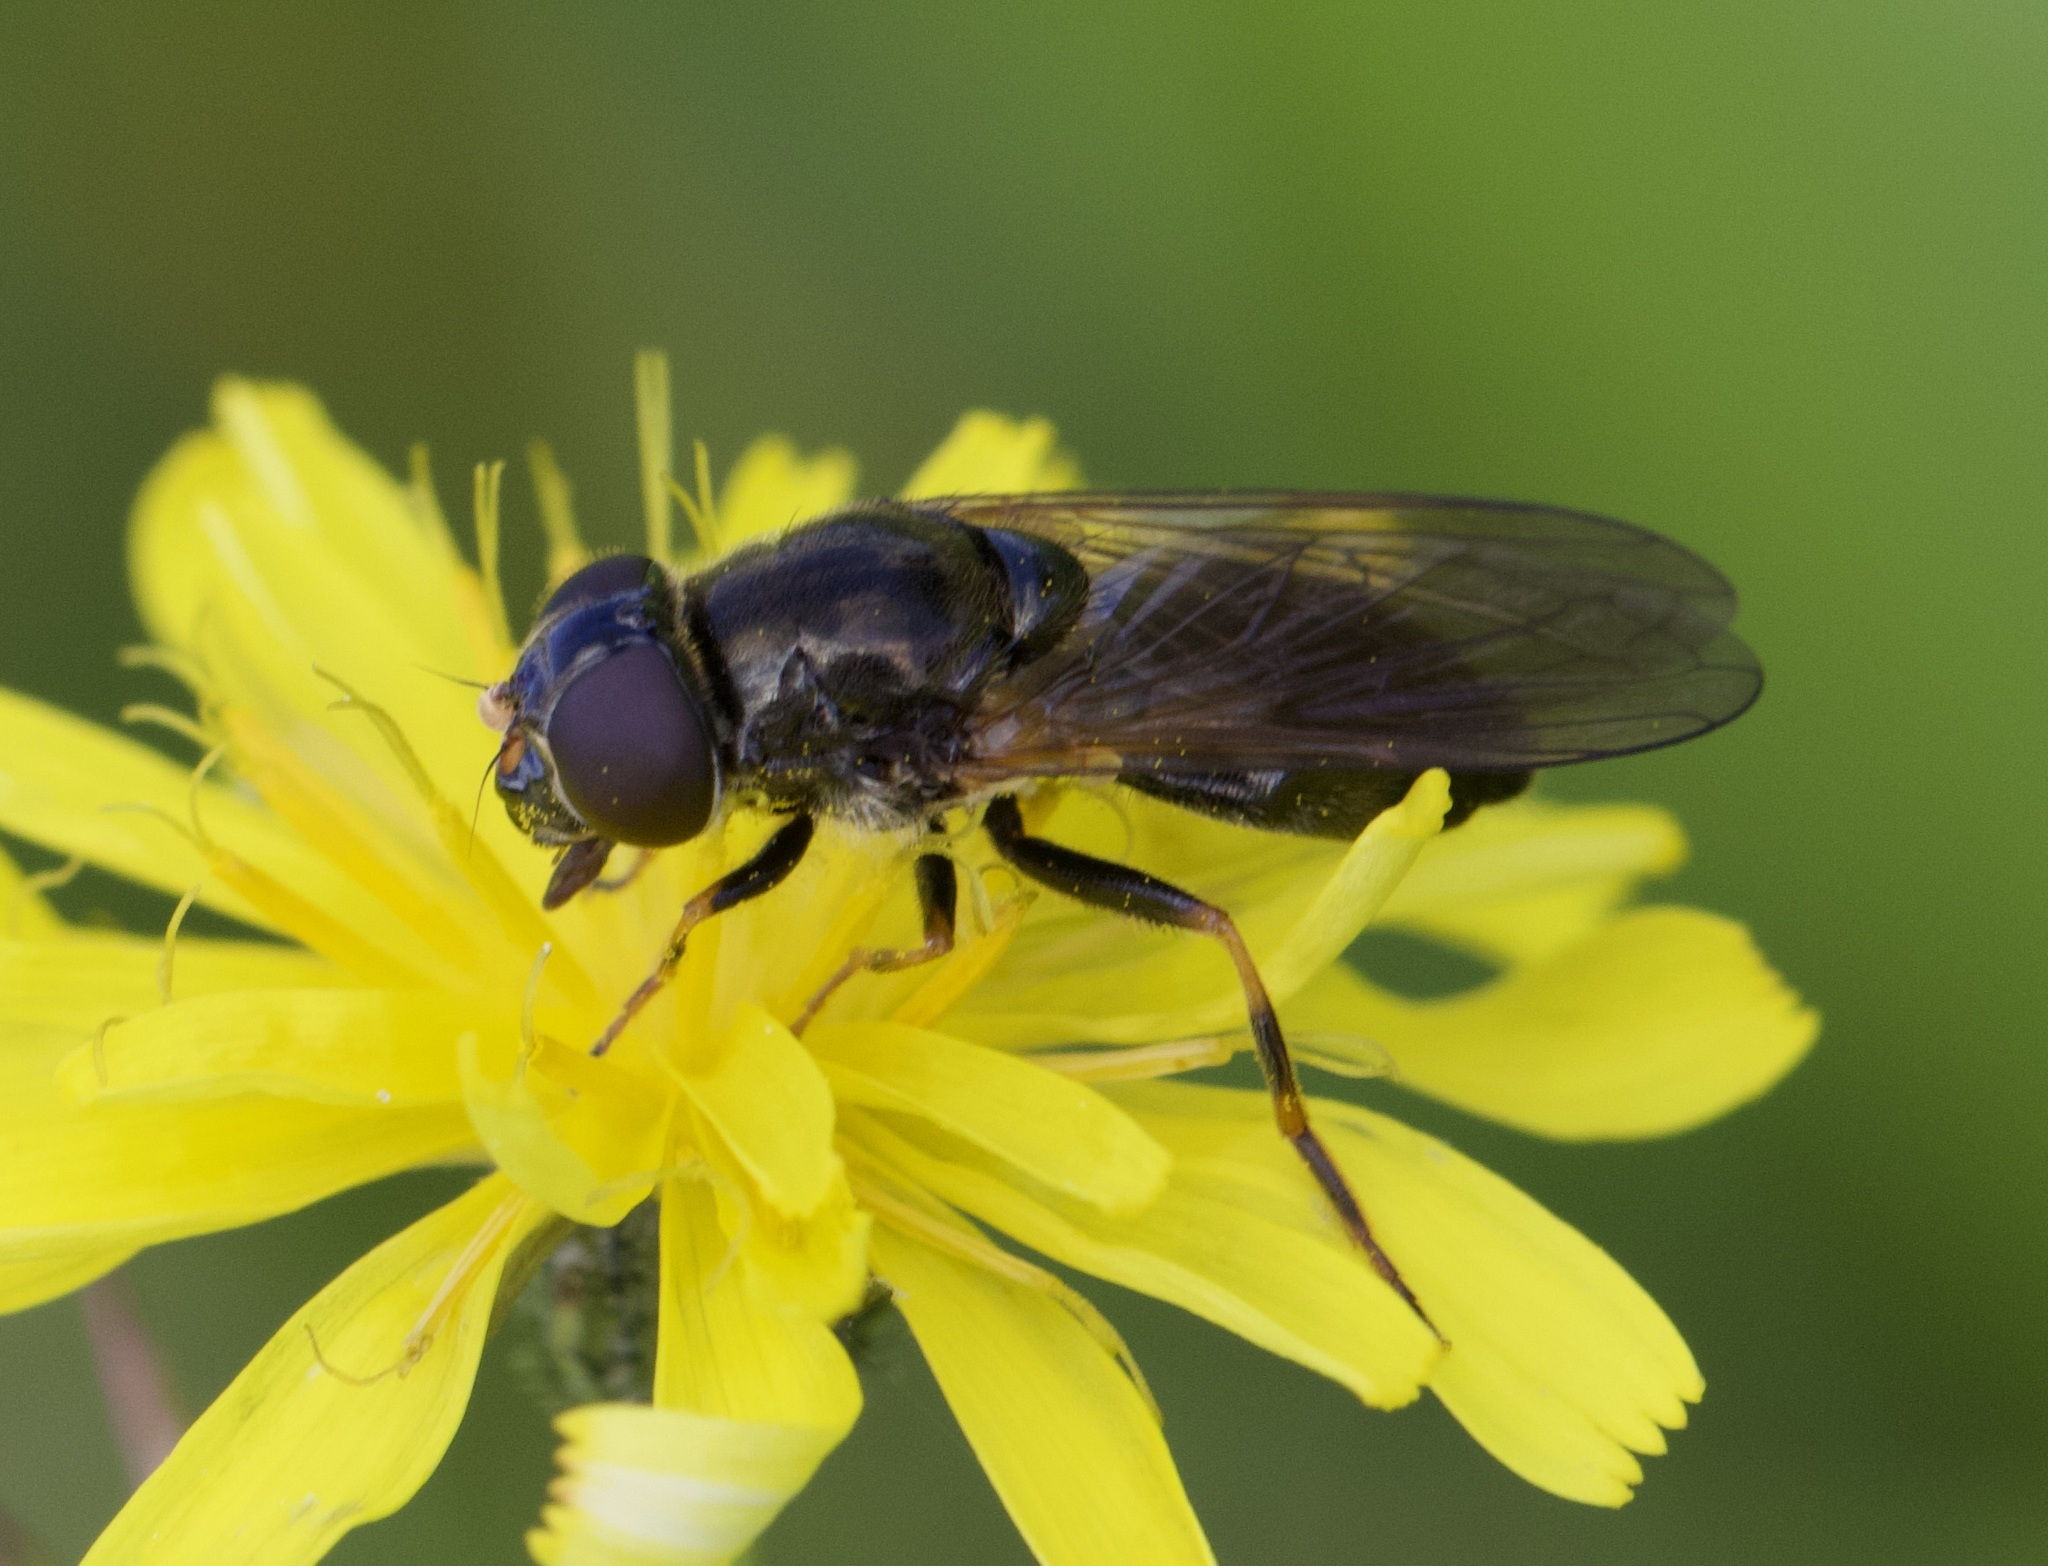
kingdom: Animalia
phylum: Arthropoda
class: Insecta
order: Diptera
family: Syrphidae
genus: Cheilosia
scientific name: Cheilosia bergenstammi
